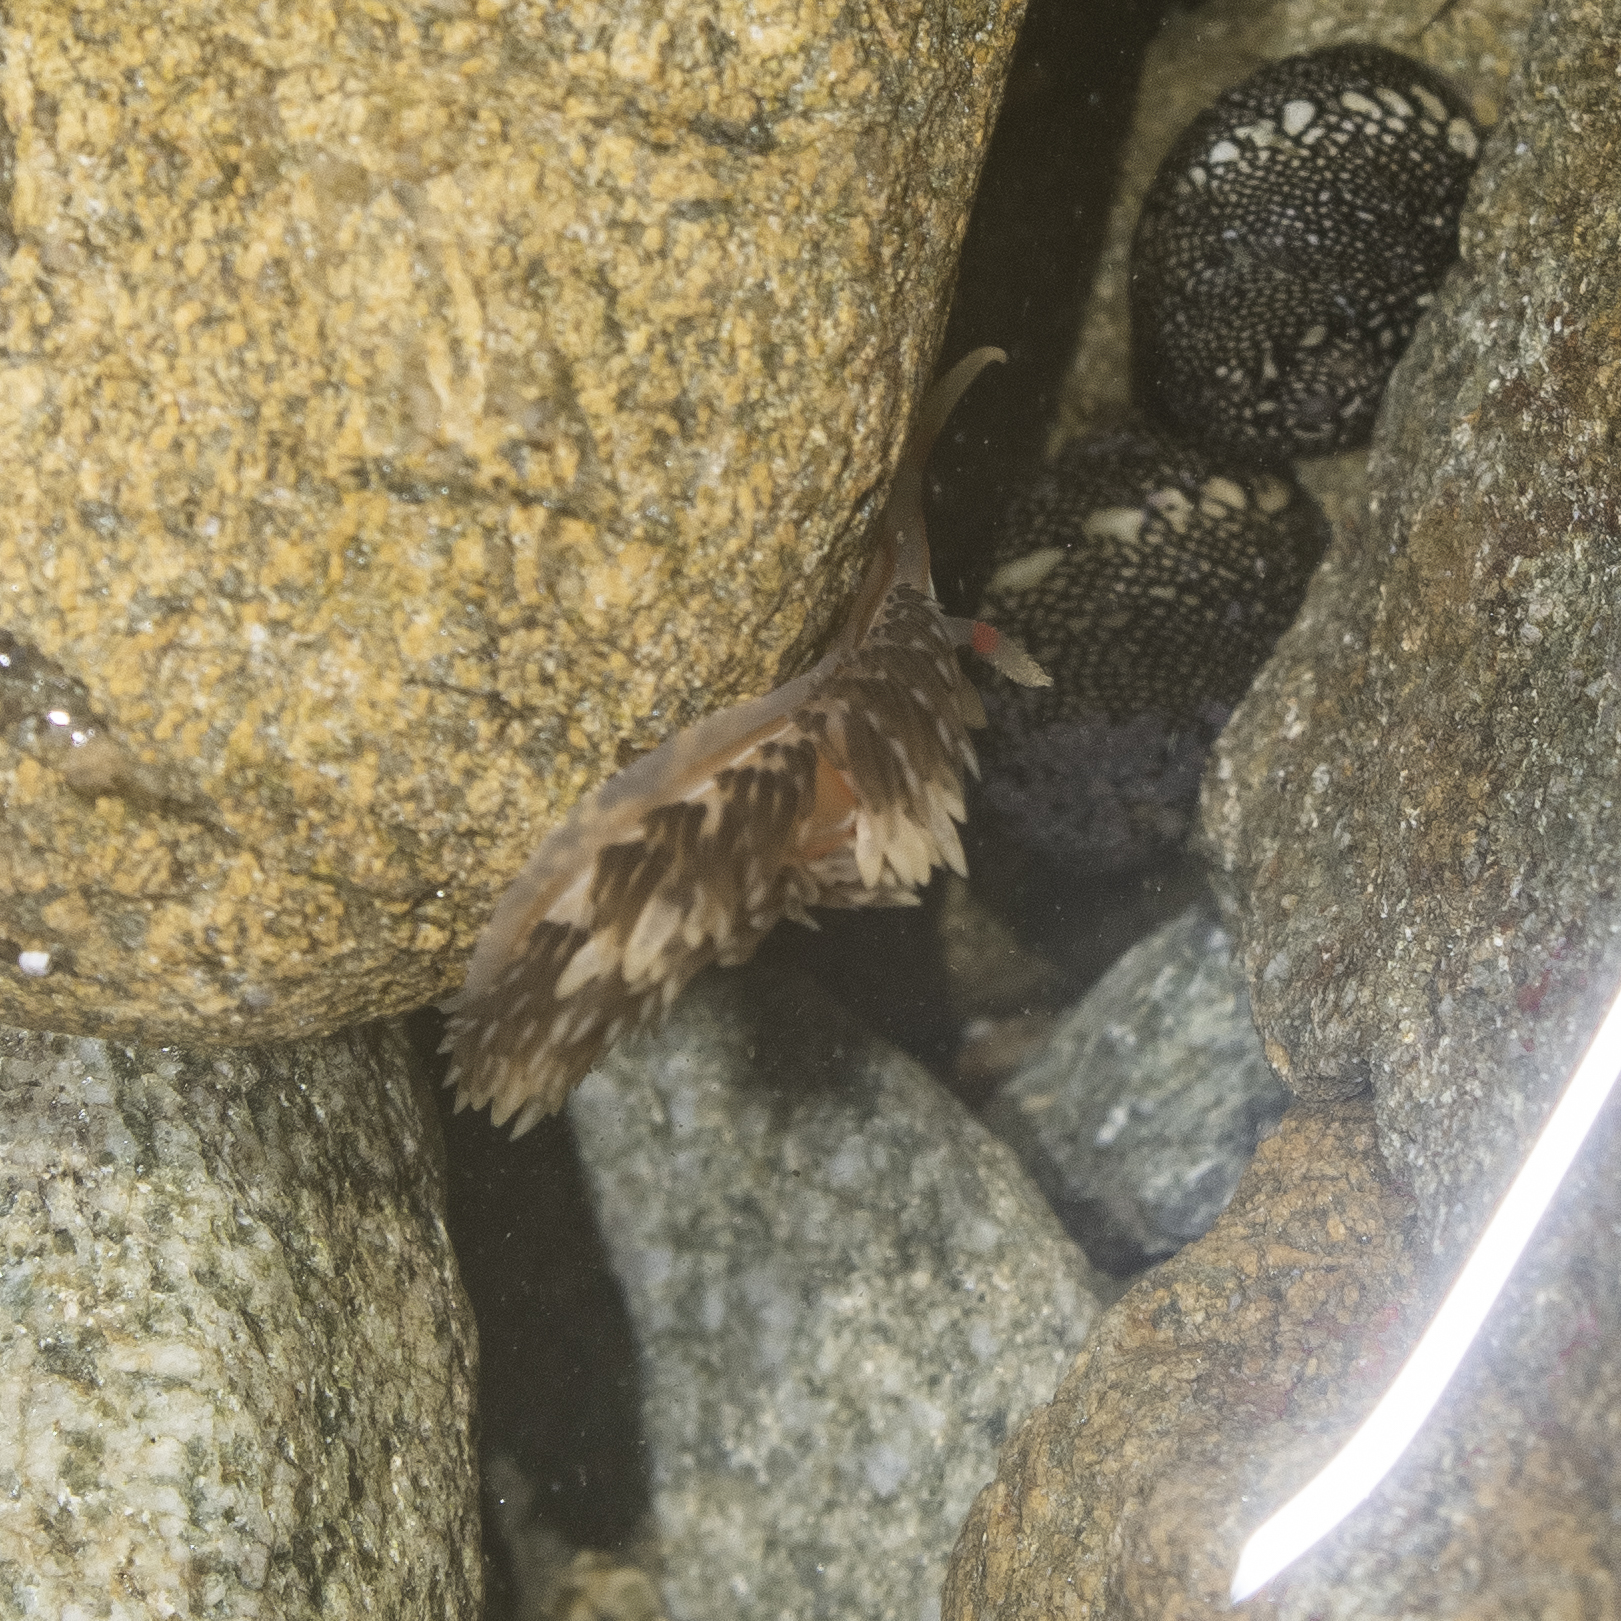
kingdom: Animalia
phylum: Mollusca
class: Gastropoda
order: Nudibranchia
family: Facelinidae
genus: Phidiana
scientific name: Phidiana lynceus
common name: Lynx nudibranch
